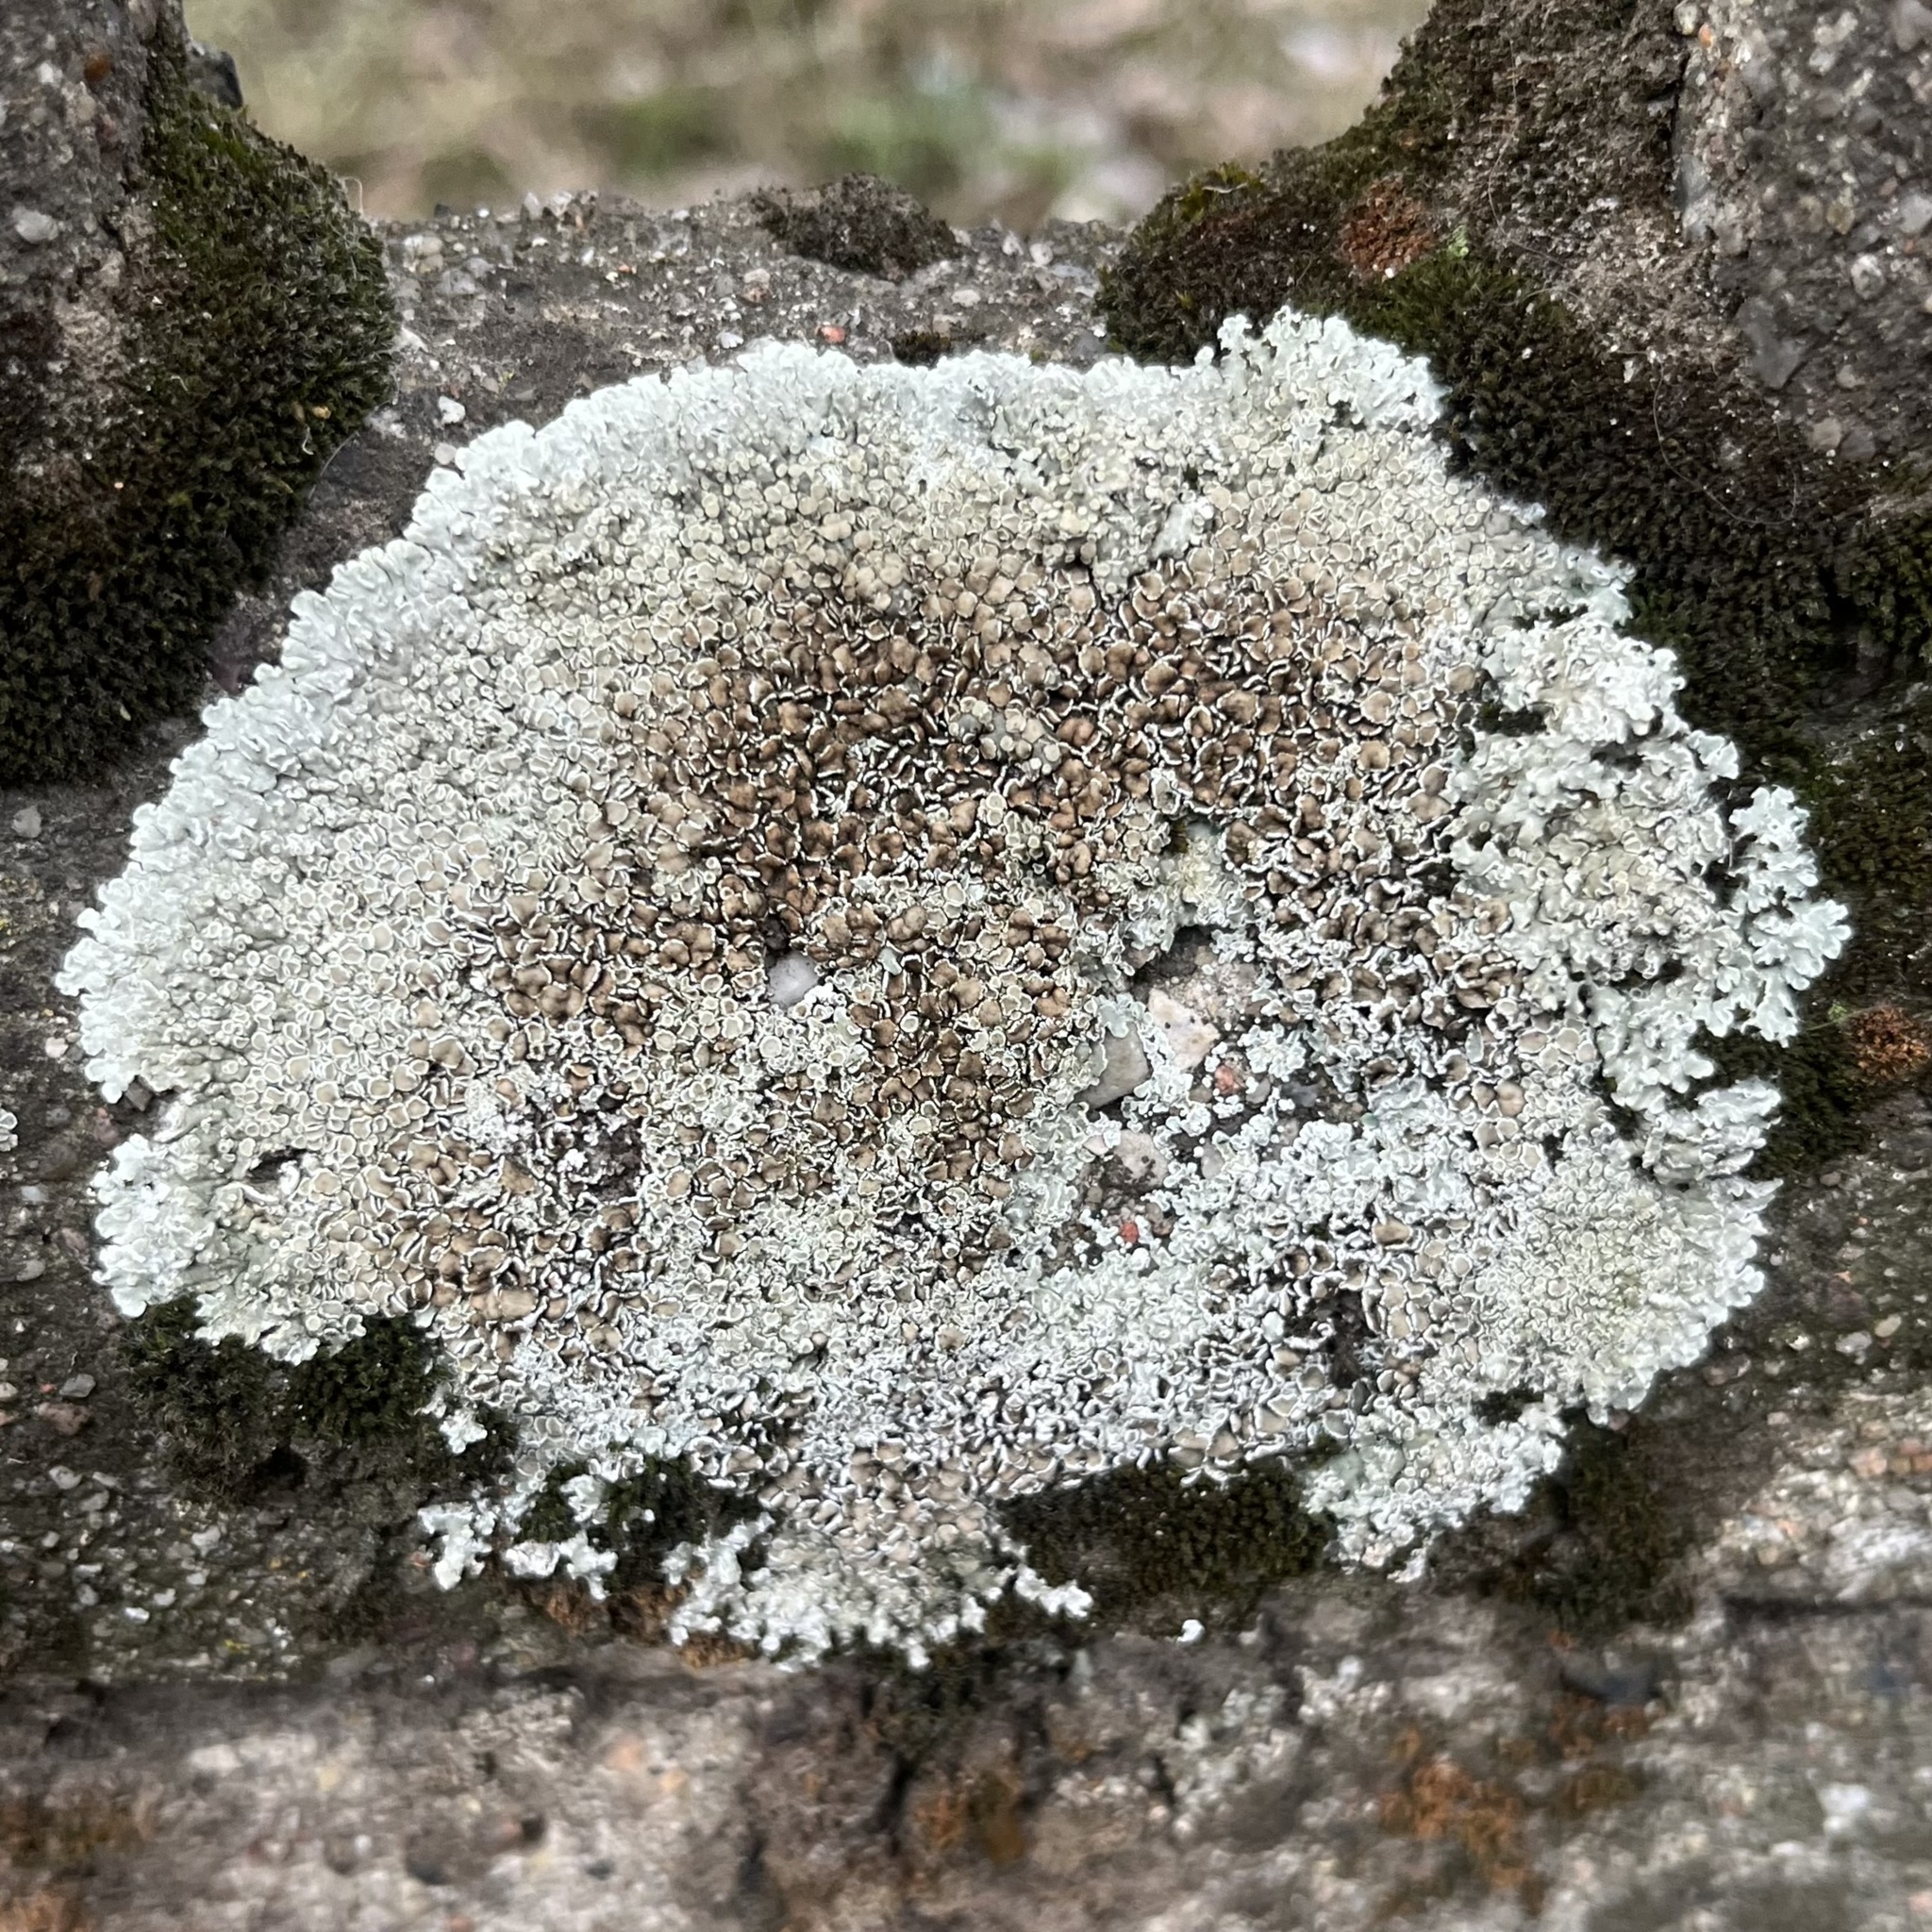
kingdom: Fungi
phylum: Ascomycota
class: Lecanoromycetes
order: Lecanorales
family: Lecanoraceae
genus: Protoparmeliopsis
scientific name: Protoparmeliopsis muralis
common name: Stonewall rim lichen
